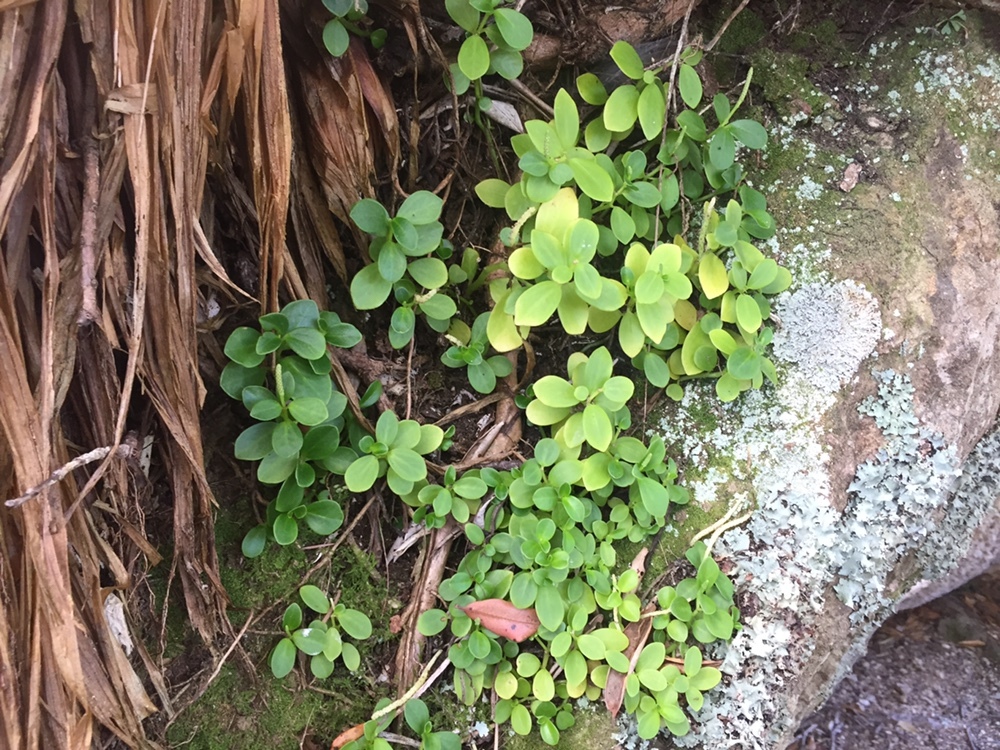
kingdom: Plantae
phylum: Tracheophyta
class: Magnoliopsida
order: Piperales
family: Piperaceae
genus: Peperomia
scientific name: Peperomia urvilleana
